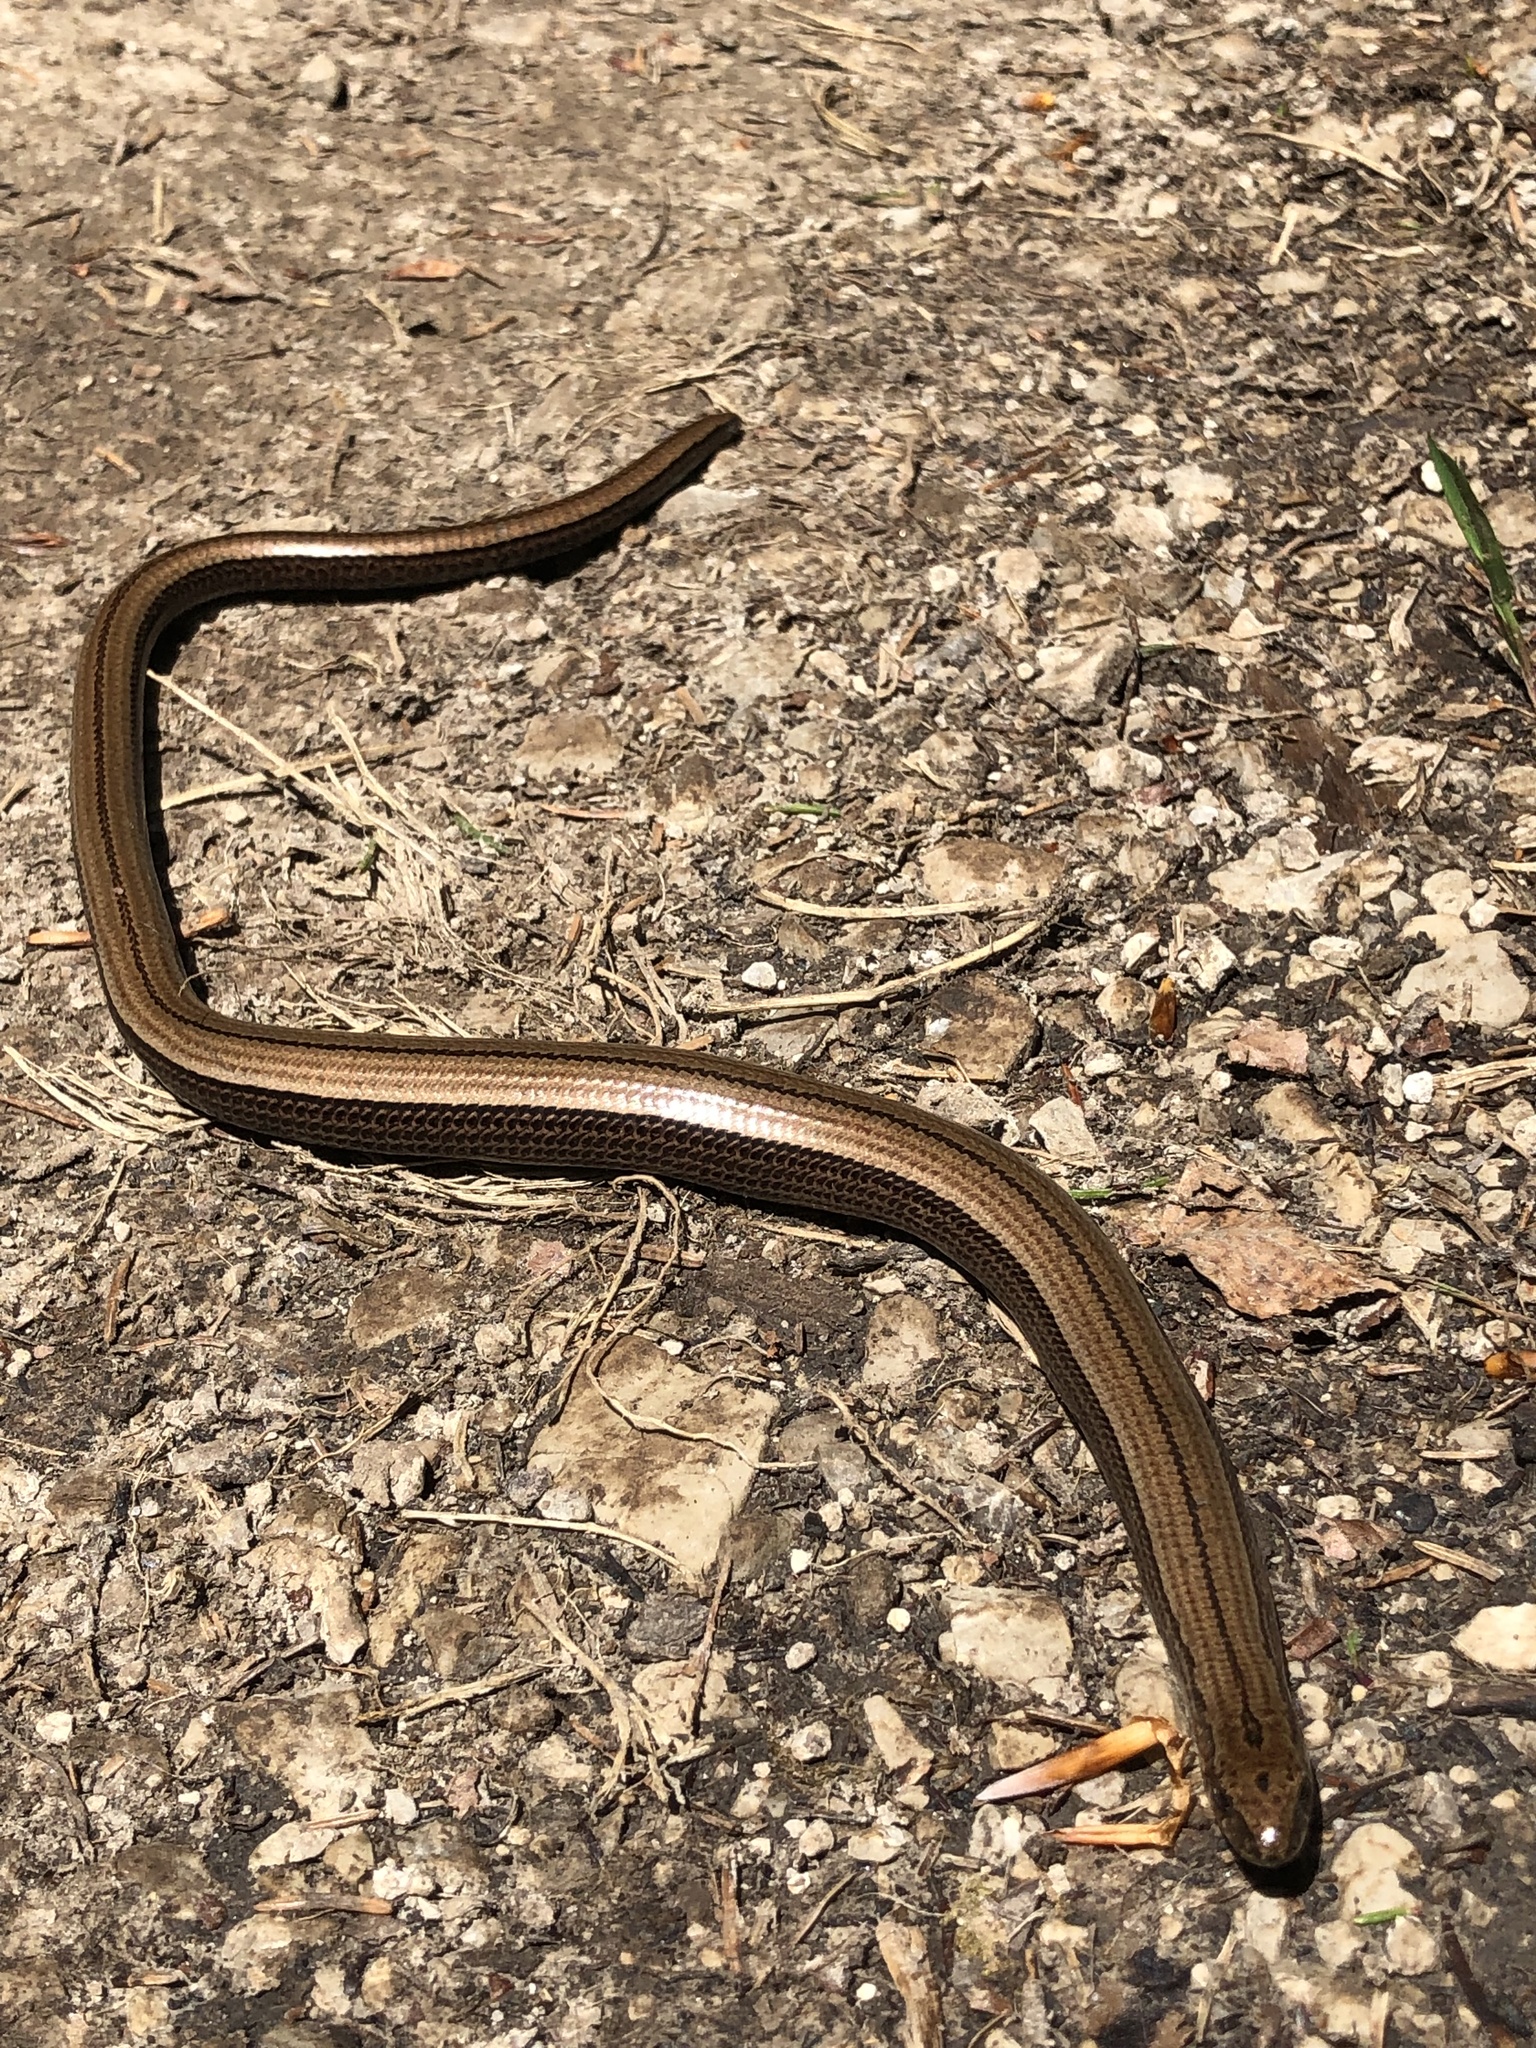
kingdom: Animalia
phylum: Chordata
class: Squamata
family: Anguidae
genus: Anguis
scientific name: Anguis fragilis
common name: Slow worm
